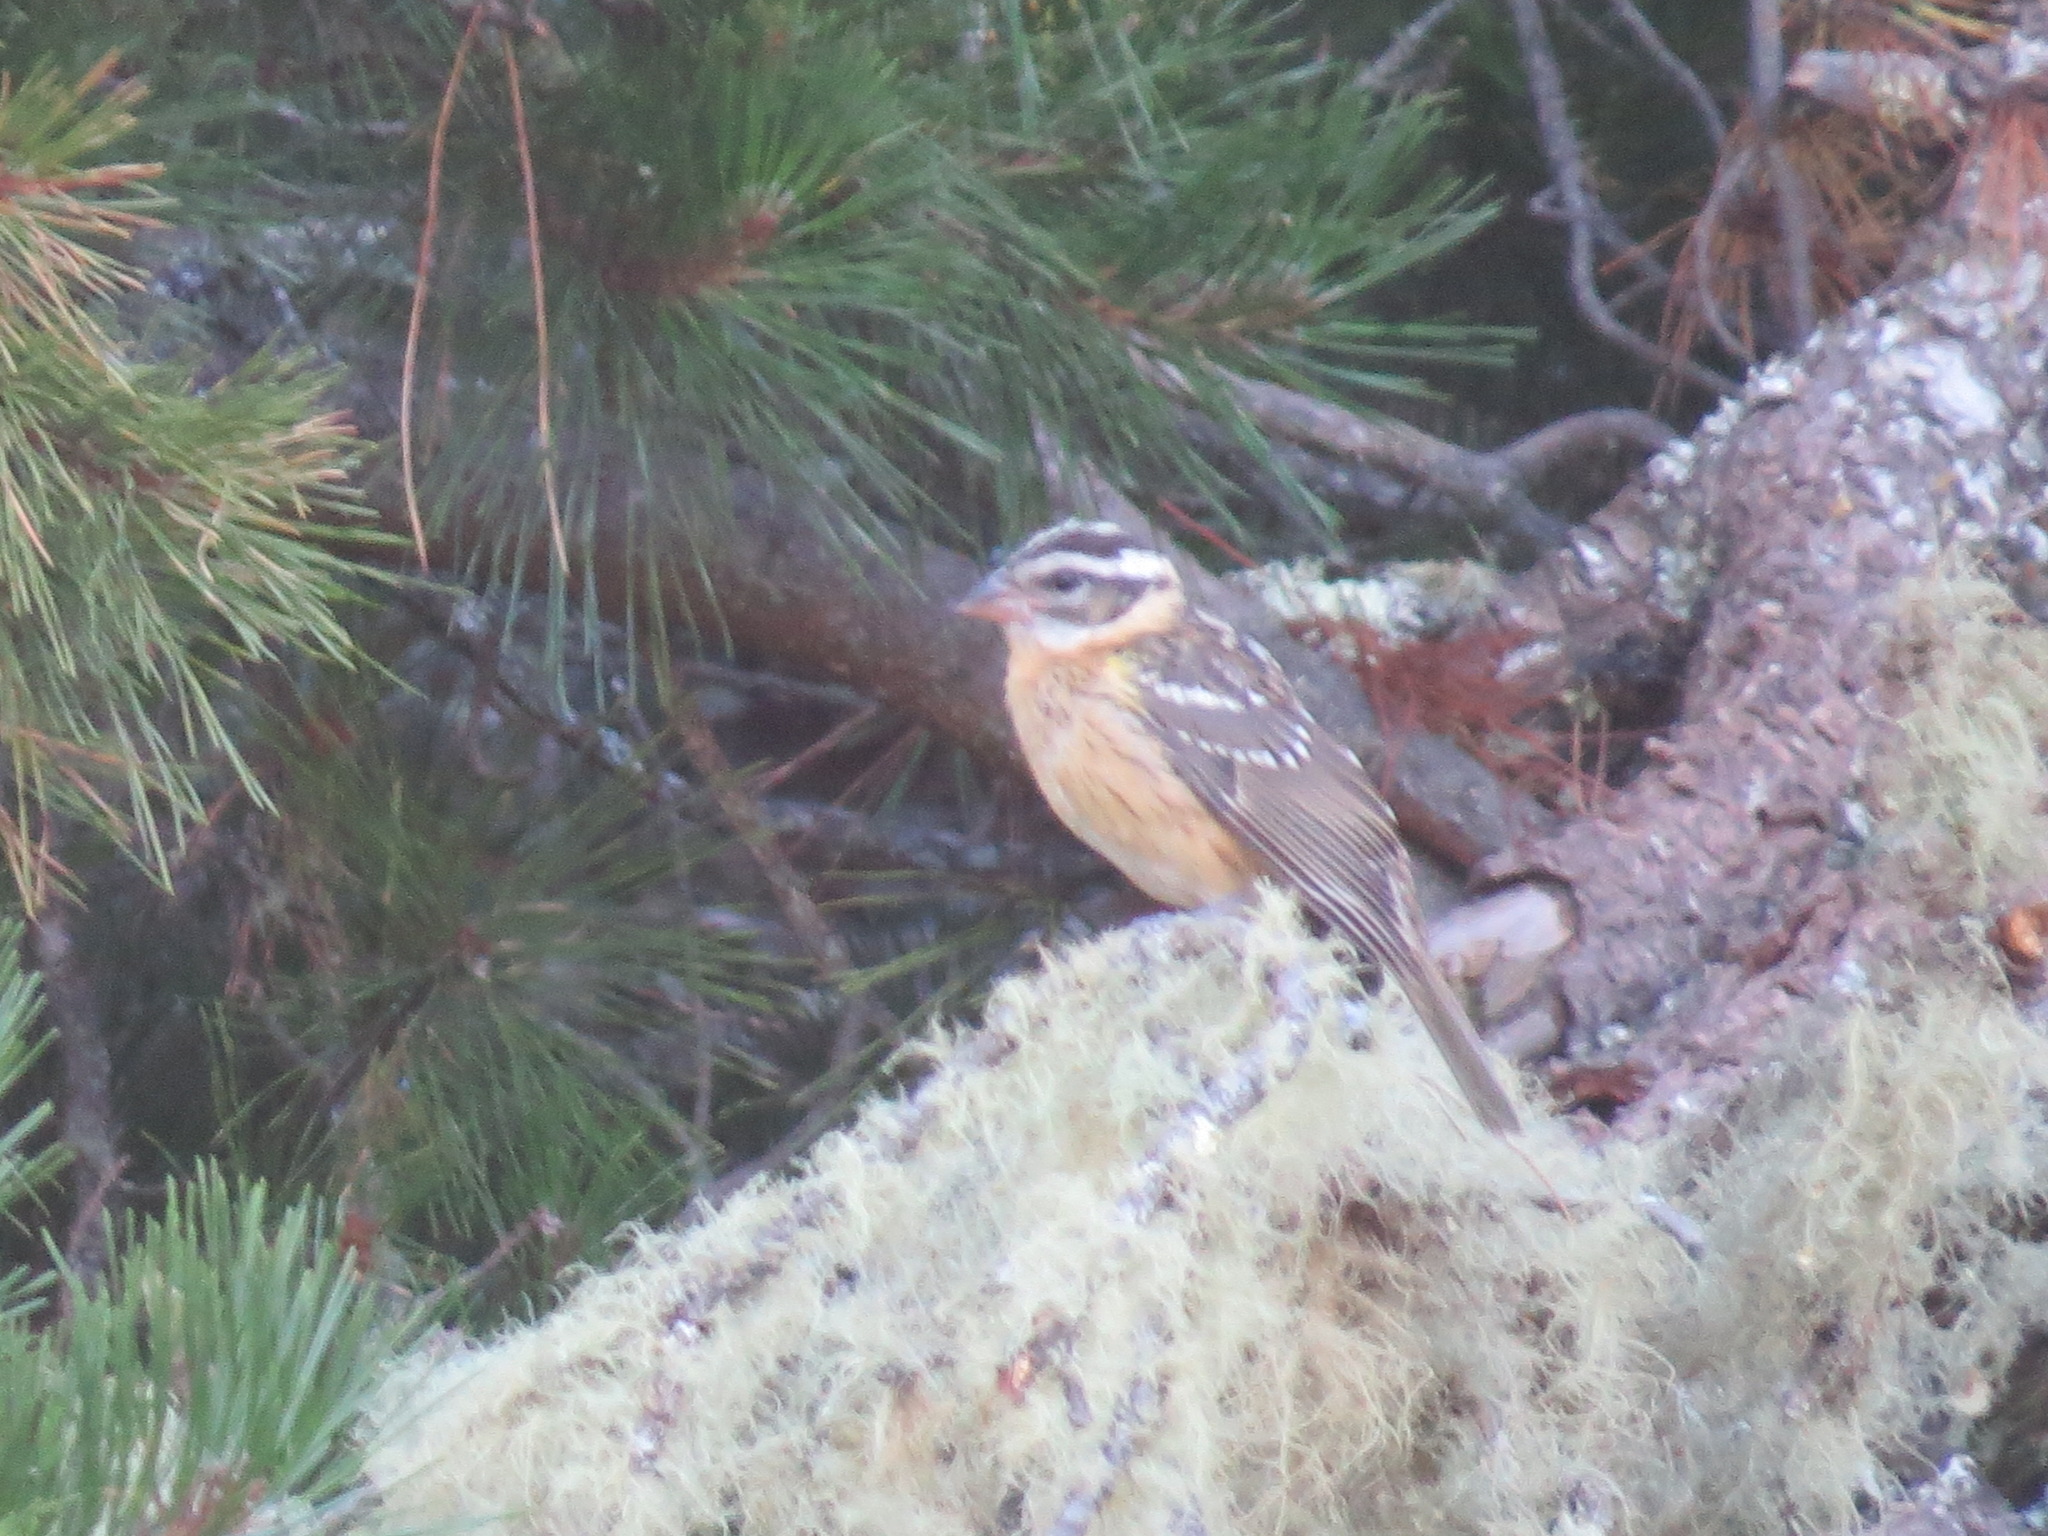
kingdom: Animalia
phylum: Chordata
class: Aves
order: Passeriformes
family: Cardinalidae
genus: Pheucticus
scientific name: Pheucticus melanocephalus
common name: Black-headed grosbeak
